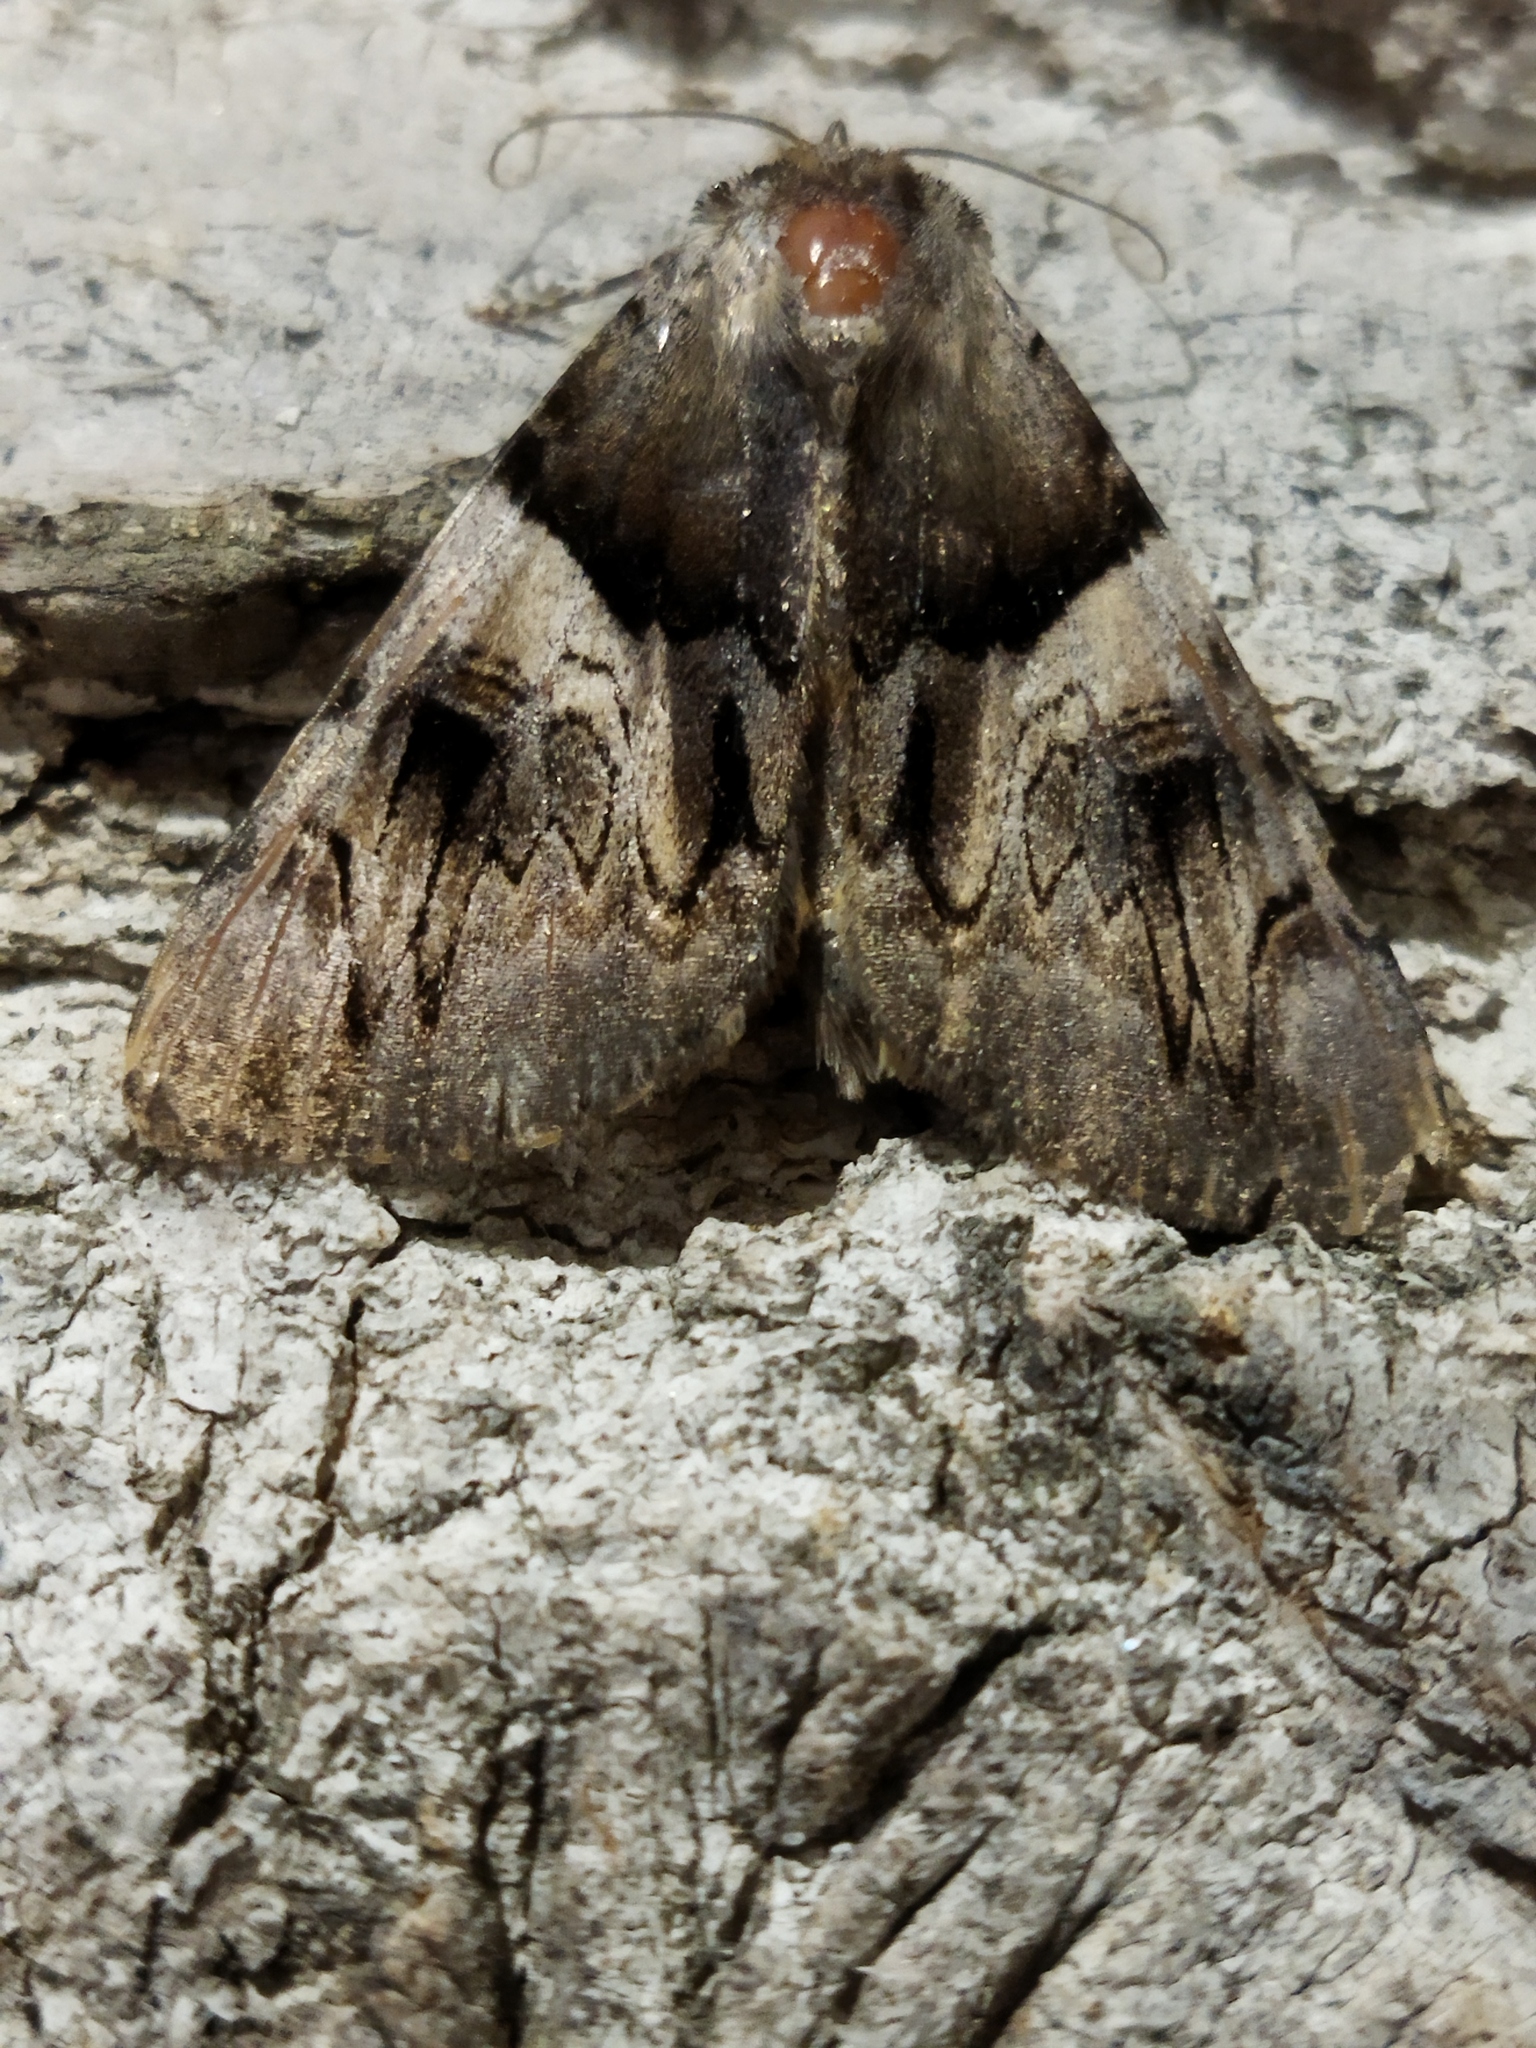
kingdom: Animalia
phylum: Arthropoda
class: Insecta
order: Lepidoptera
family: Erebidae
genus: Catocala
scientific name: Catocala fulminea
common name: Yellow bands underwing
